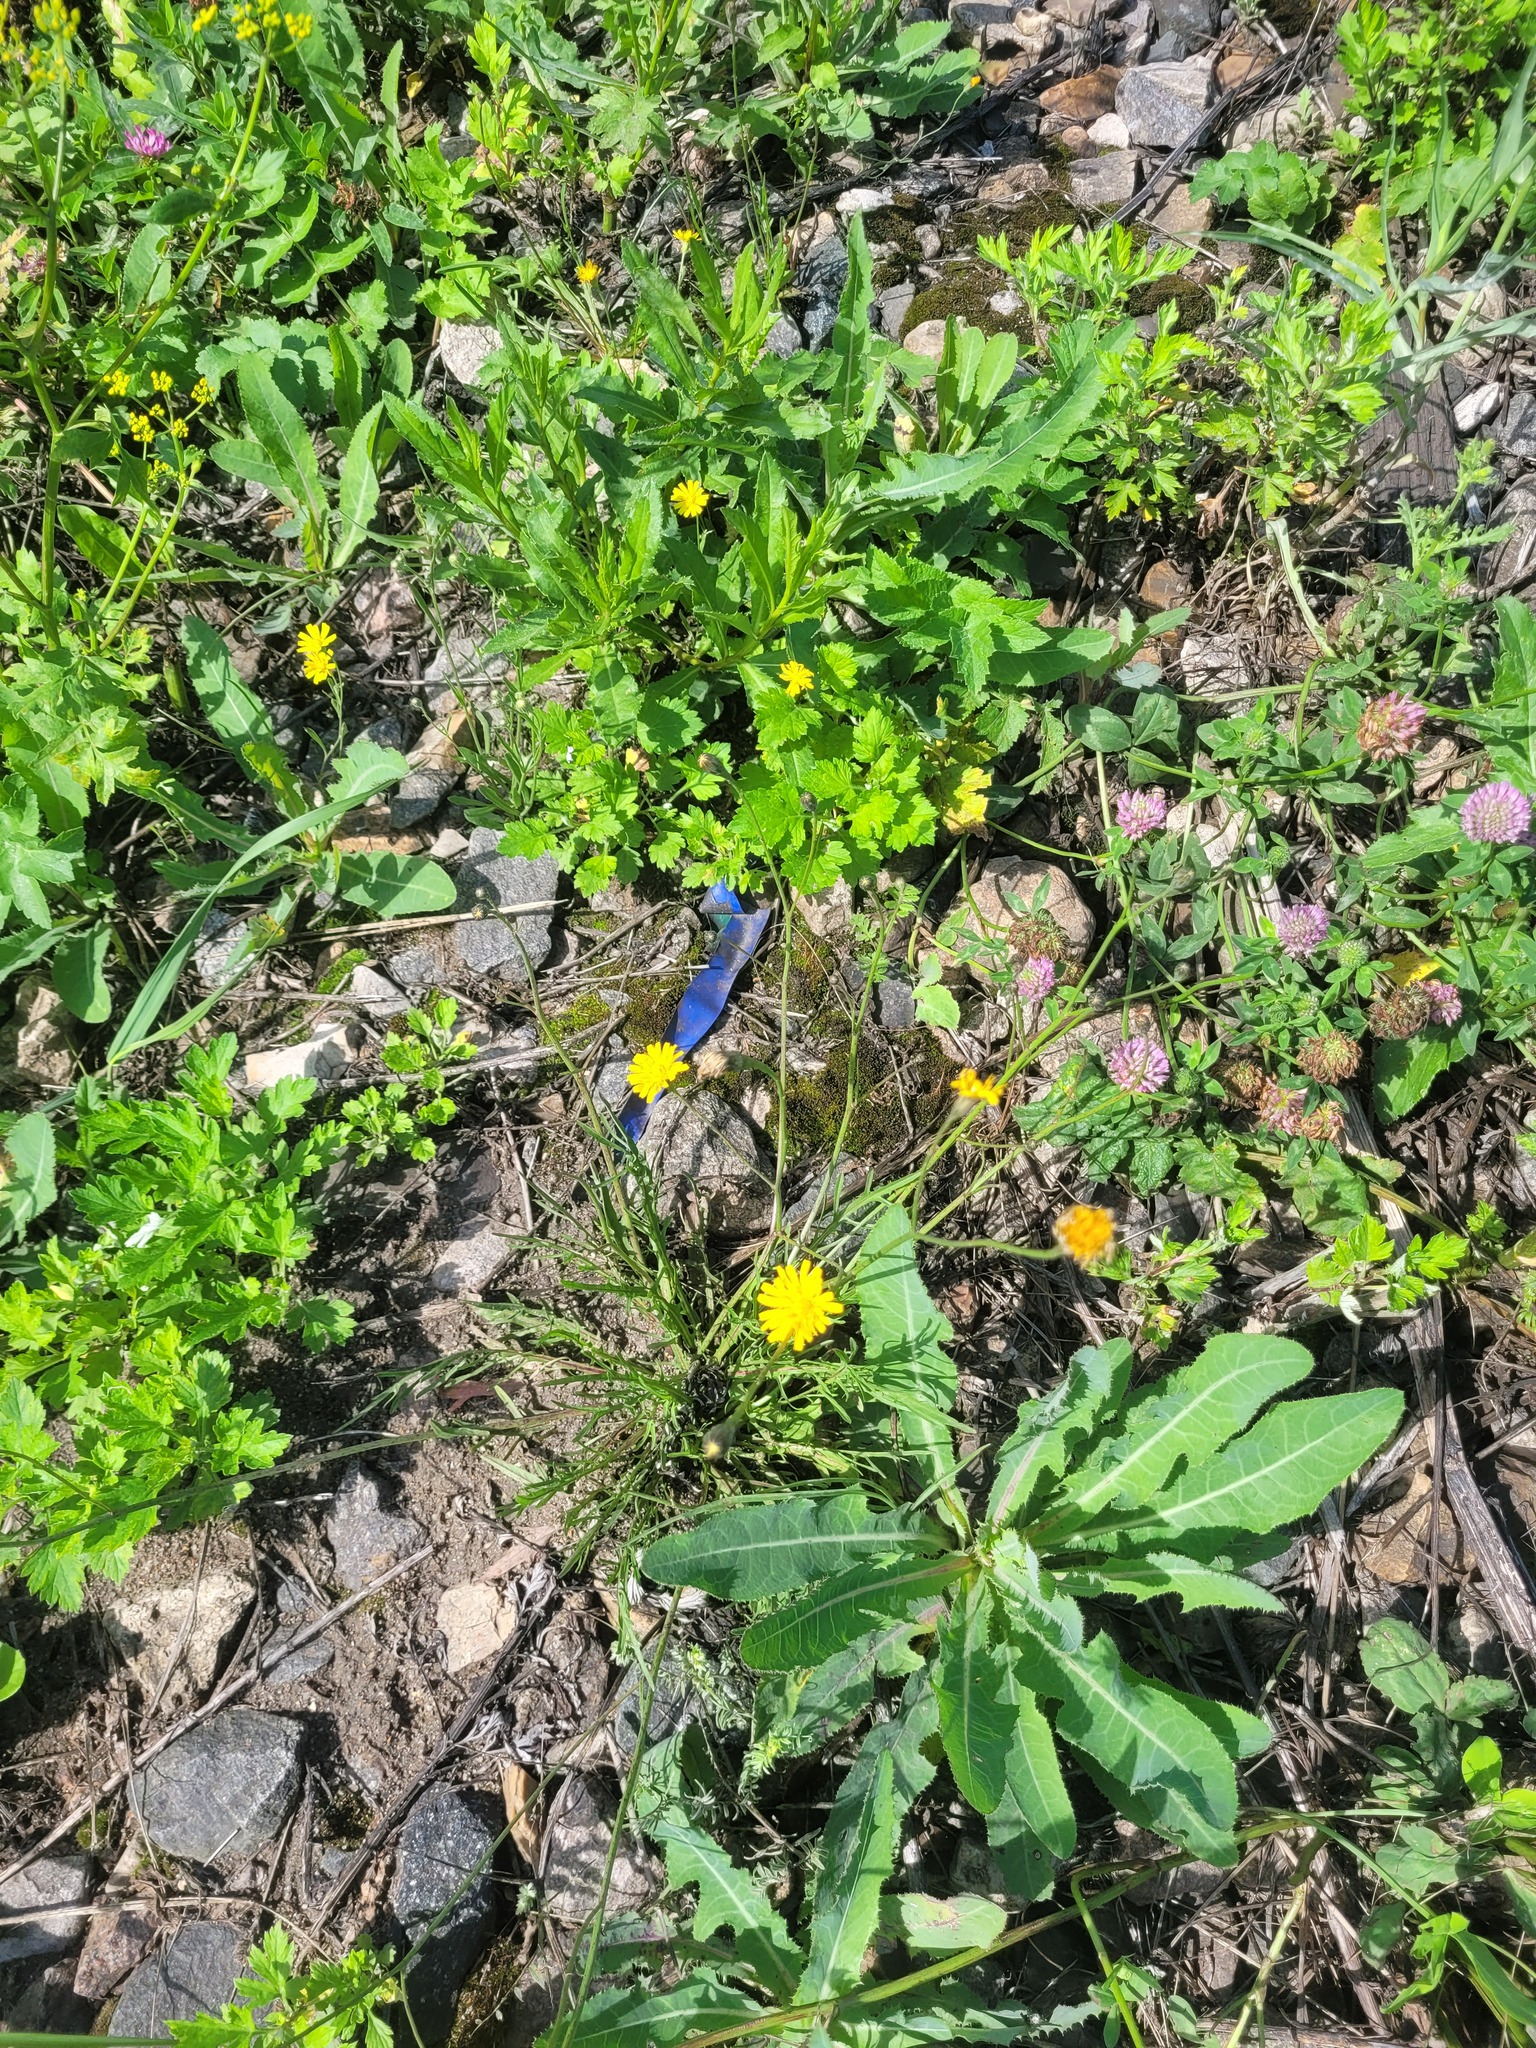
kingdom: Plantae
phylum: Tracheophyta
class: Magnoliopsida
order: Asterales
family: Asteraceae
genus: Scorzoneroides
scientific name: Scorzoneroides autumnalis
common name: Autumn hawkbit
